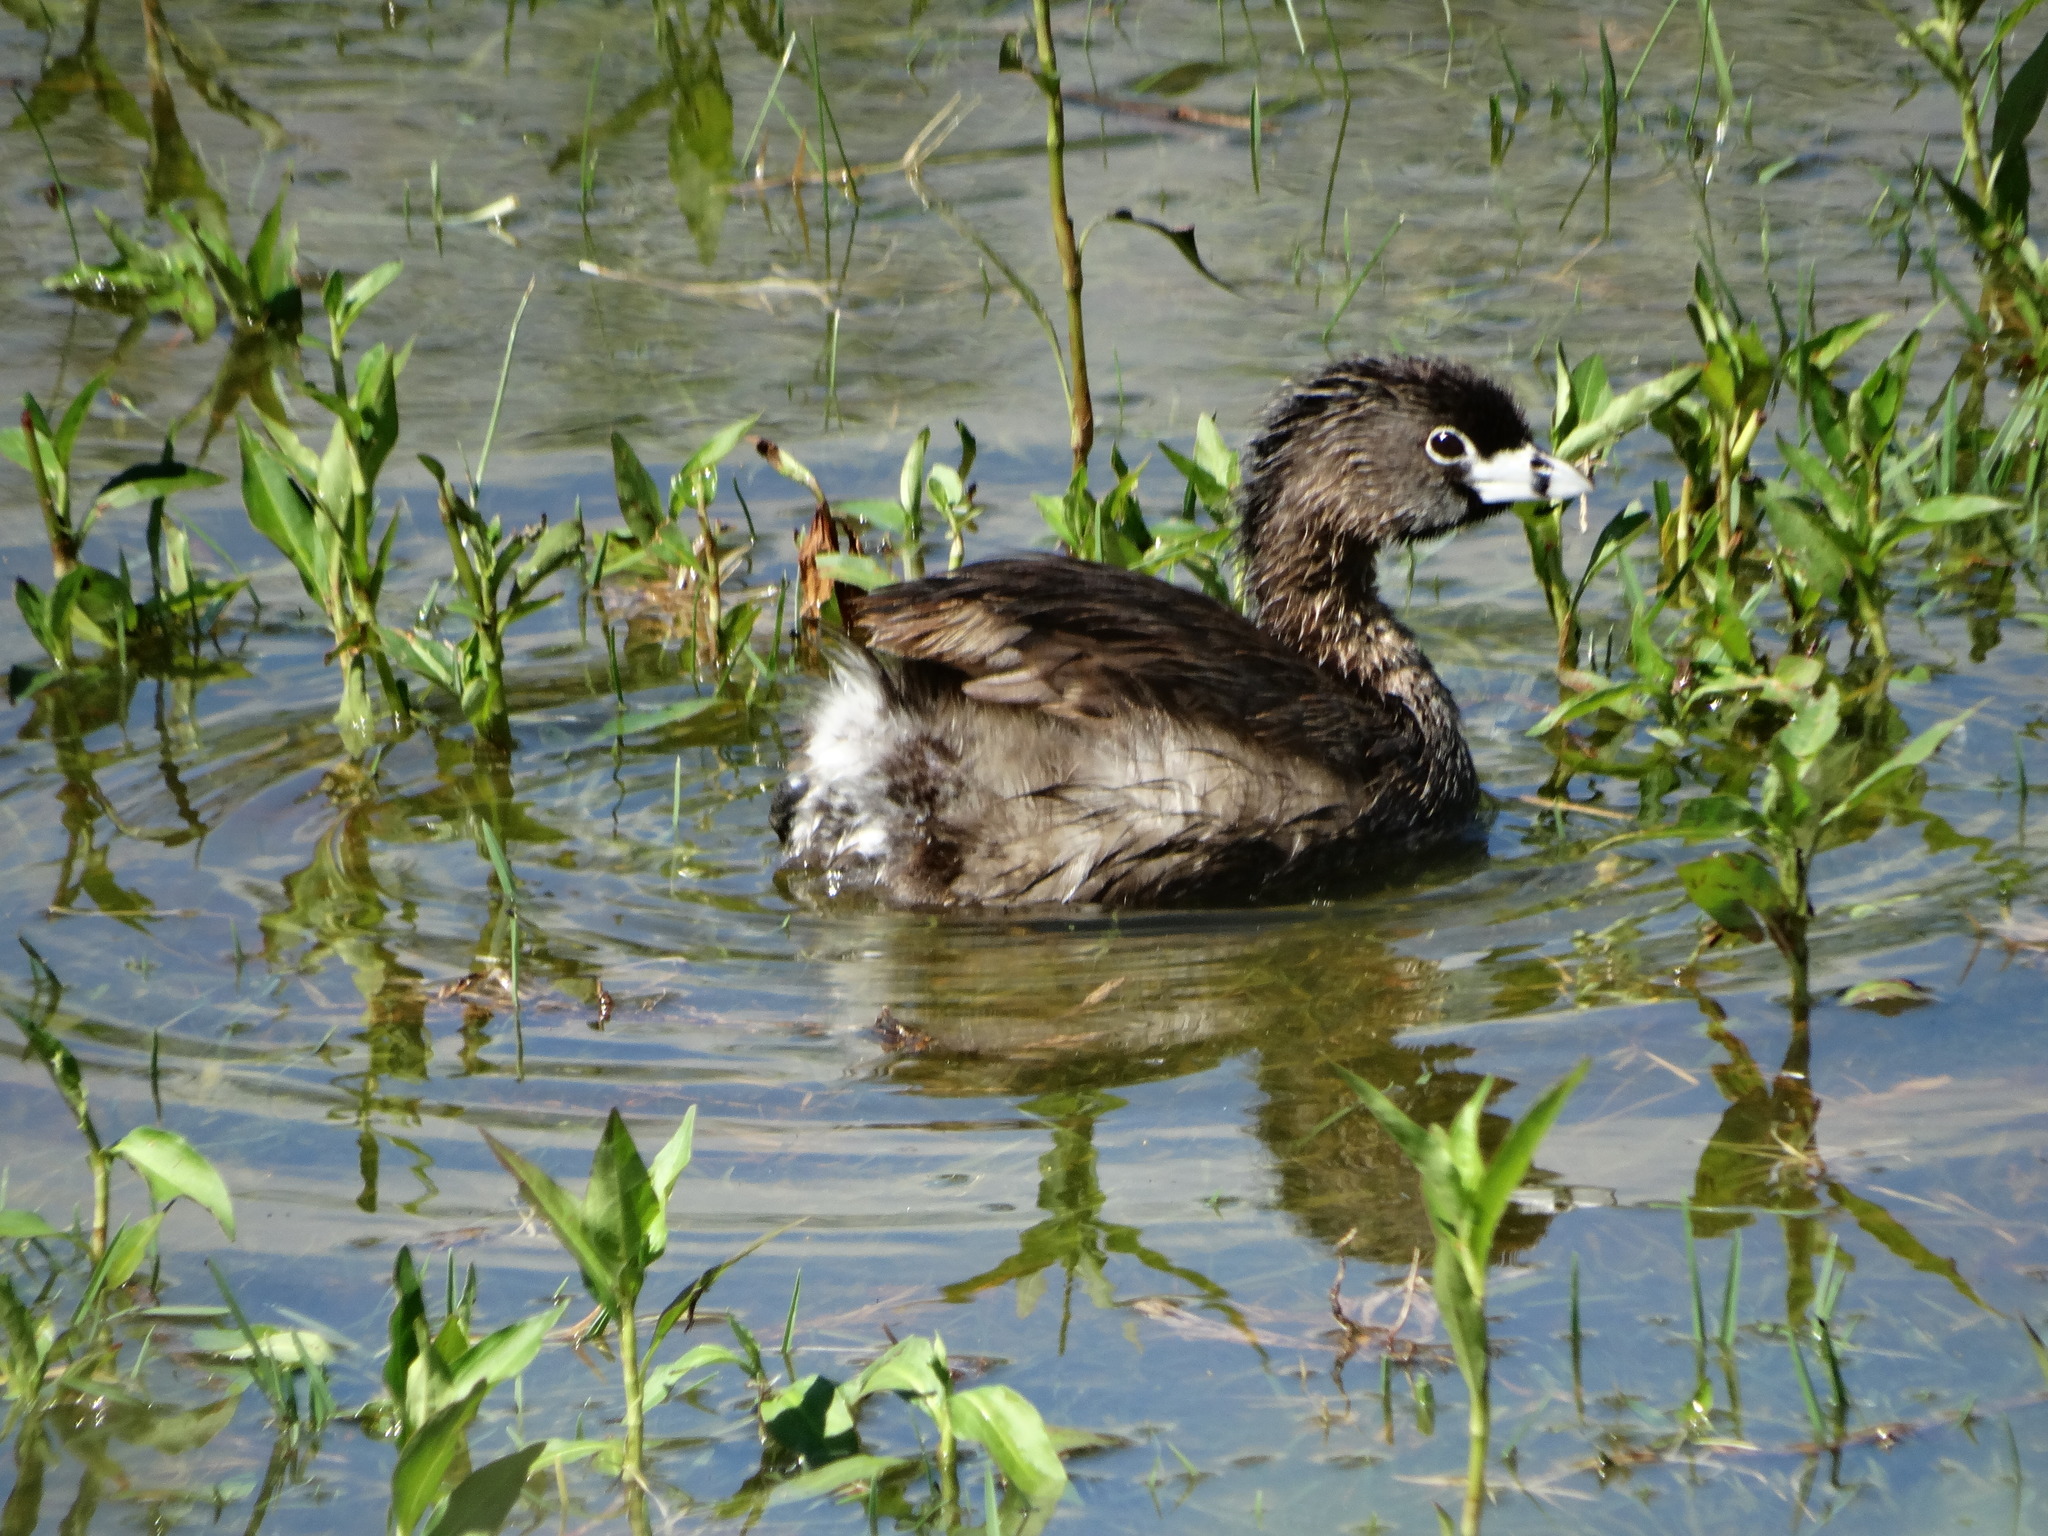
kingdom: Animalia
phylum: Chordata
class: Aves
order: Podicipediformes
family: Podicipedidae
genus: Podilymbus
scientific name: Podilymbus podiceps
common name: Pied-billed grebe
